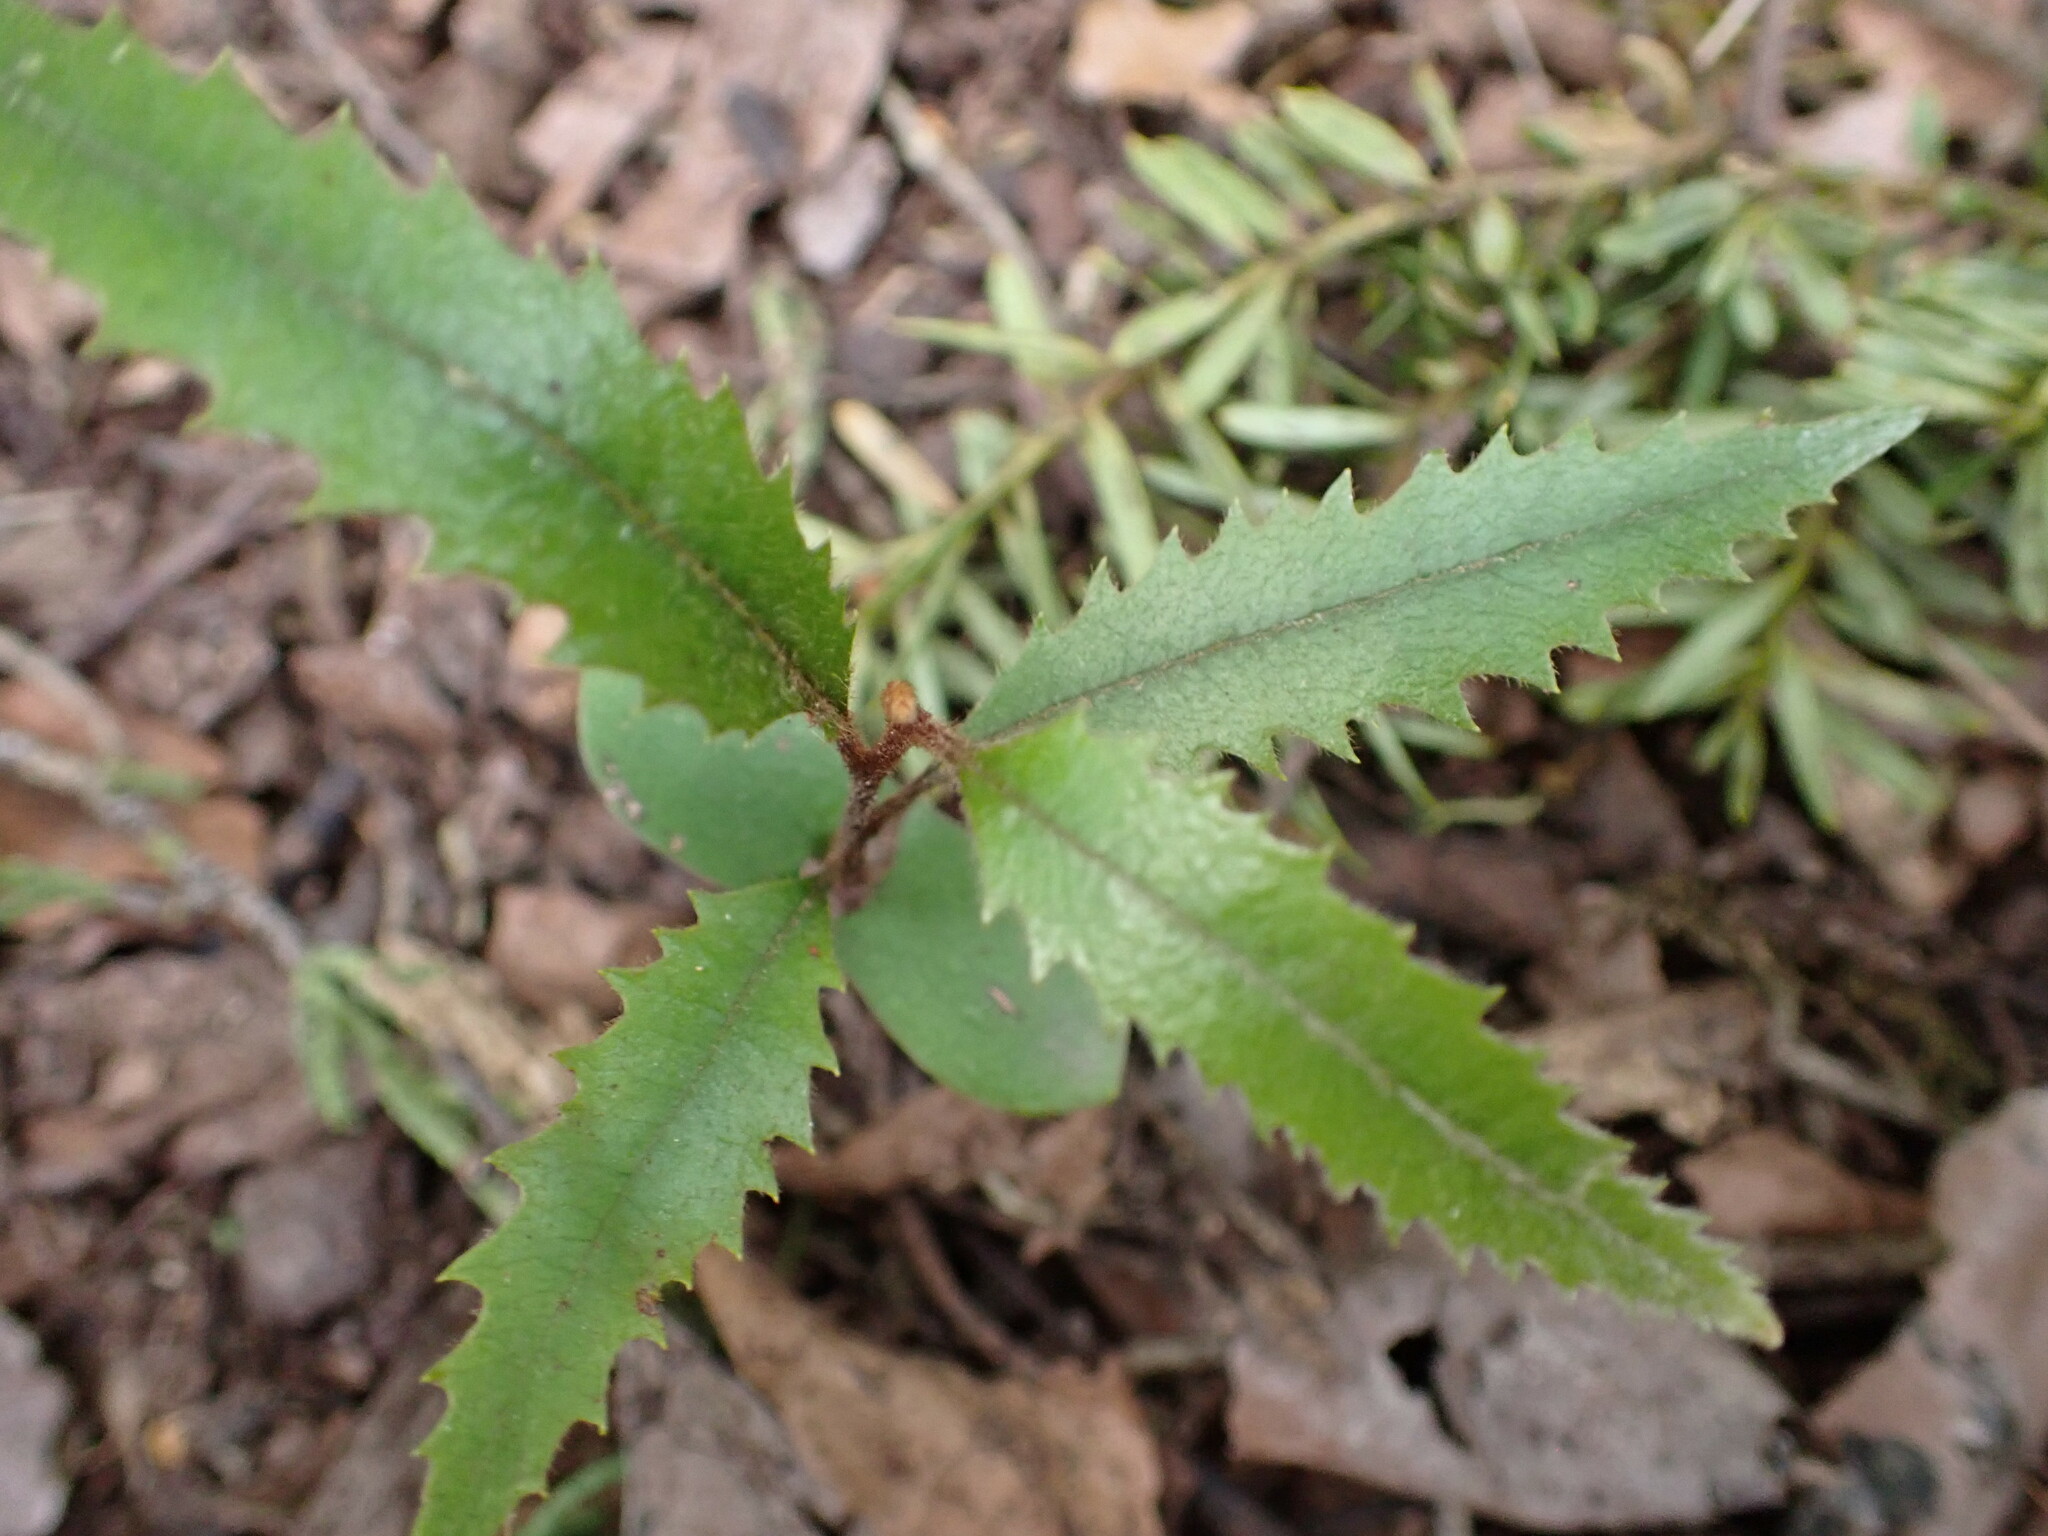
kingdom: Plantae
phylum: Tracheophyta
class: Magnoliopsida
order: Proteales
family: Proteaceae
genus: Knightia
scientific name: Knightia excelsa
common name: New zealand-honeysuckle
